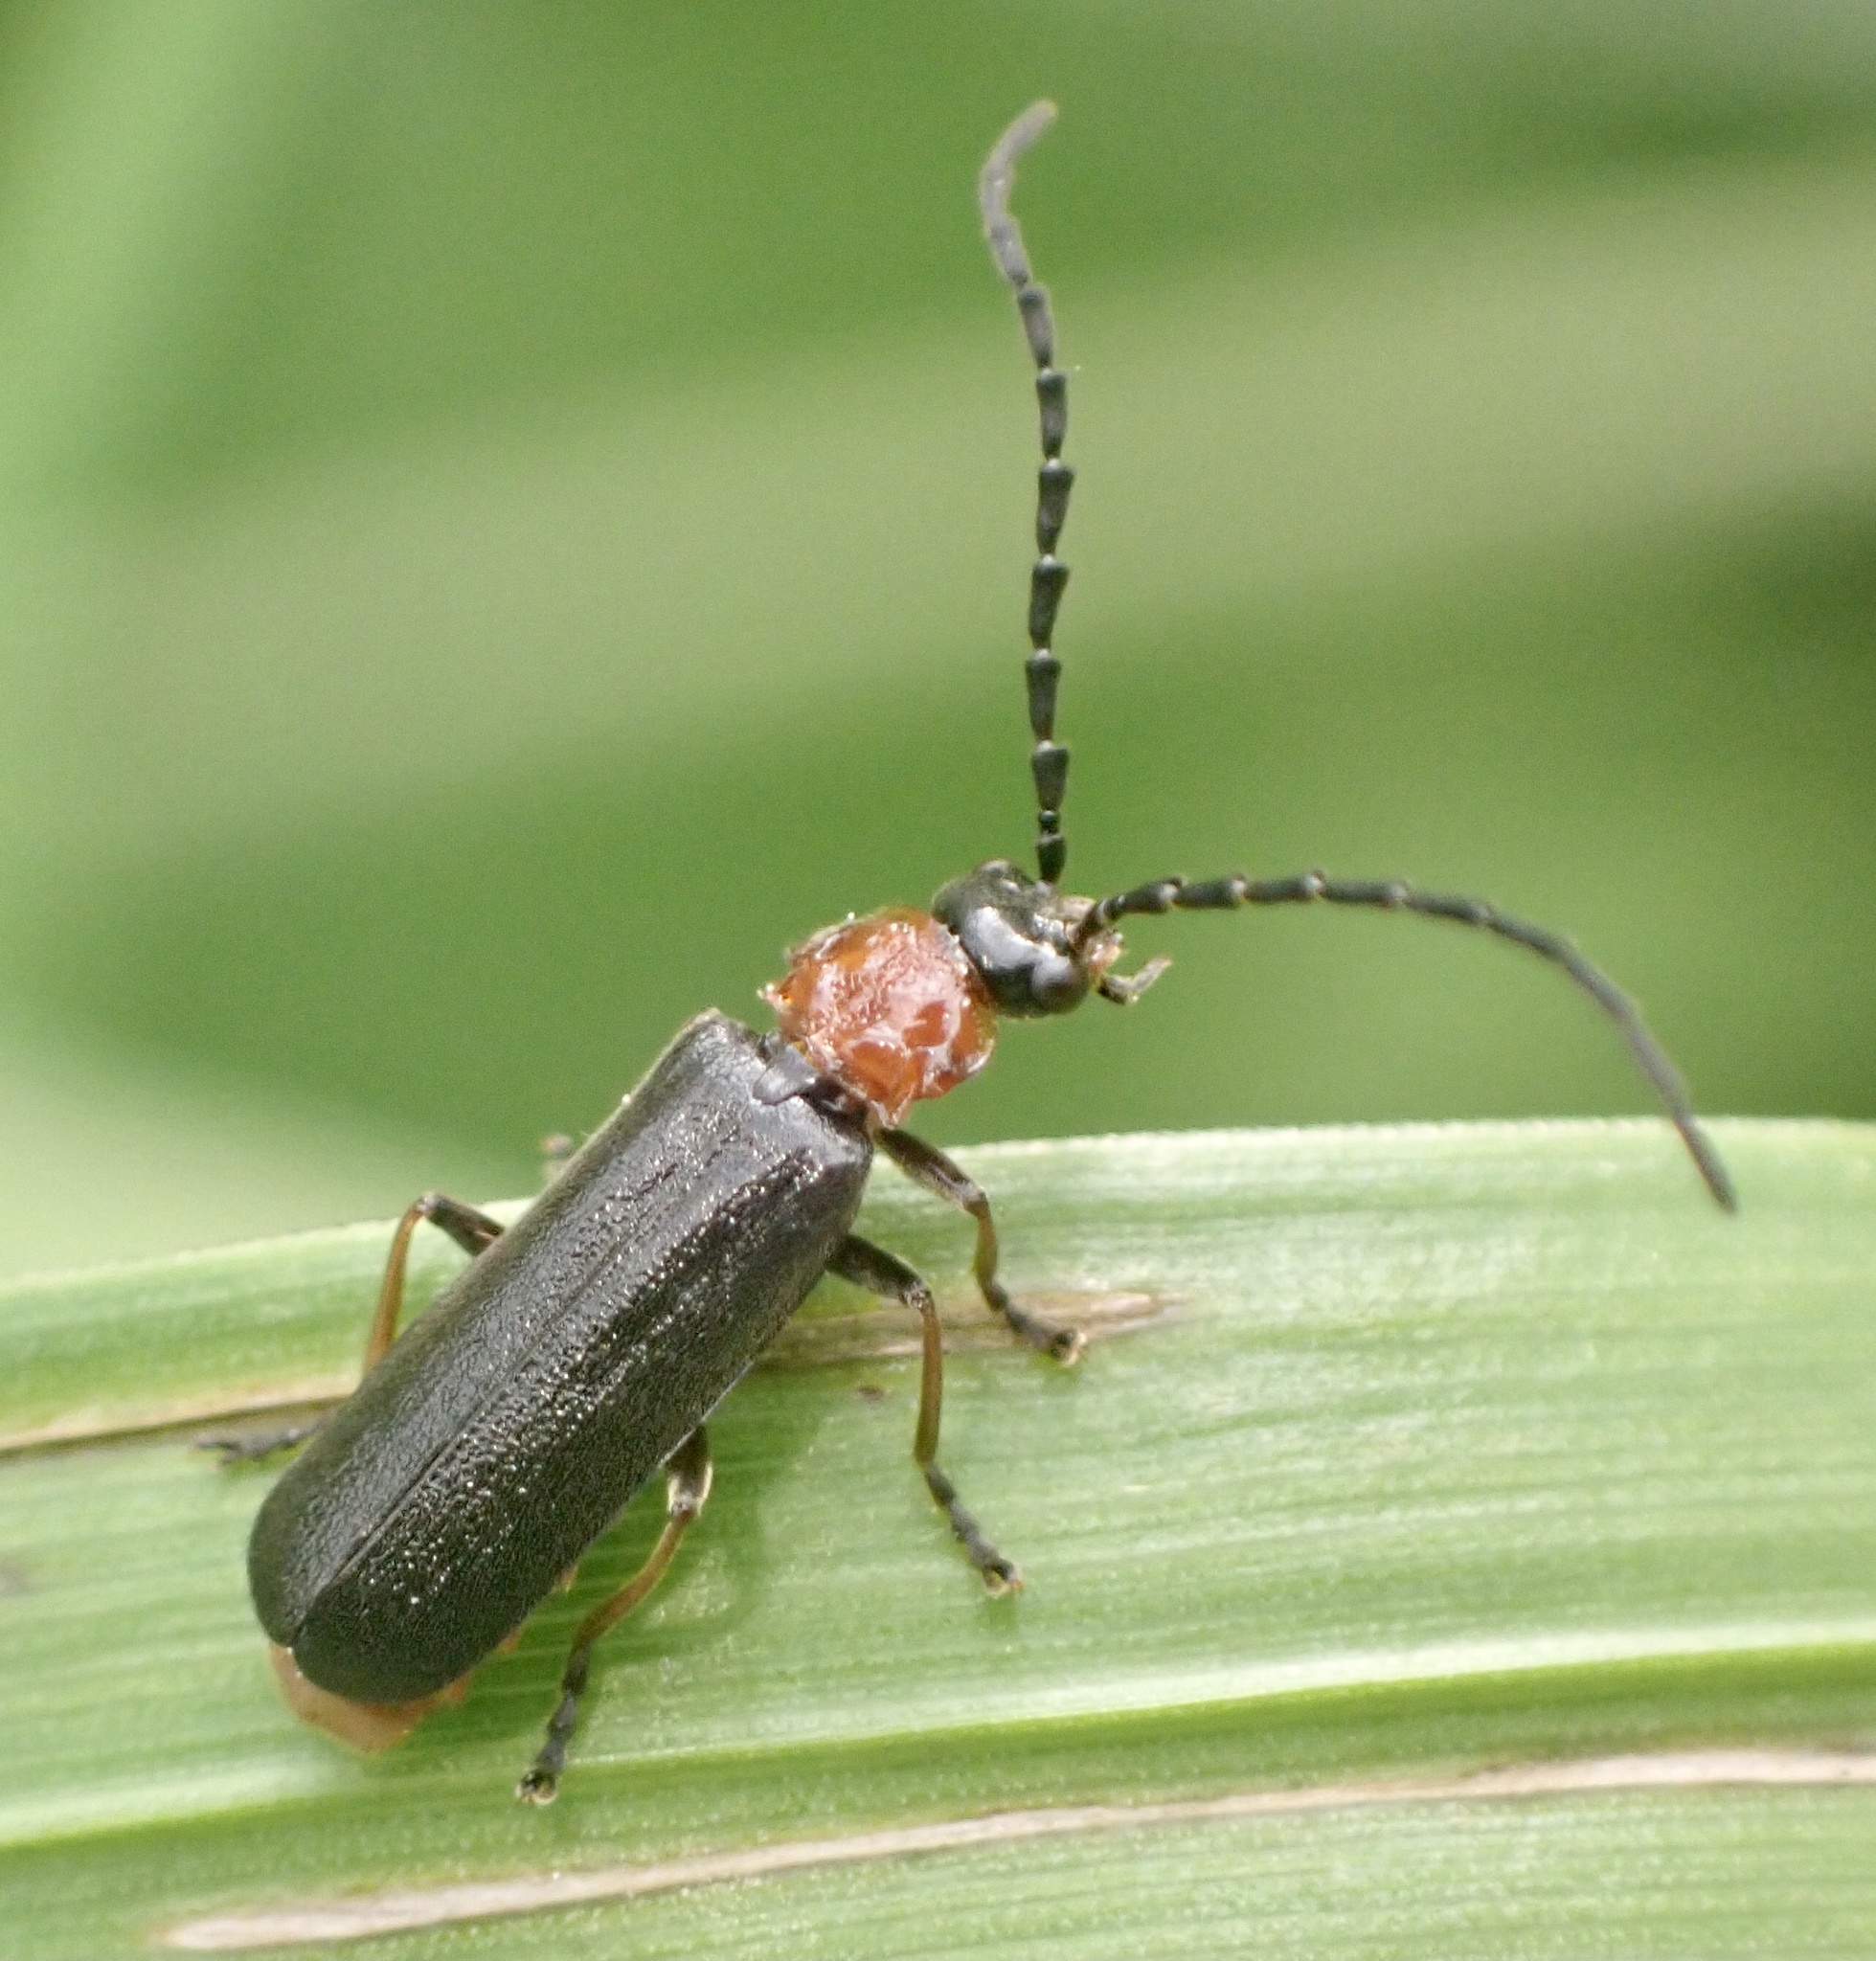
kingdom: Animalia
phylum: Arthropoda
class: Insecta
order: Coleoptera
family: Cantharidae
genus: Crudosilis
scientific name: Crudosilis ruficollis
